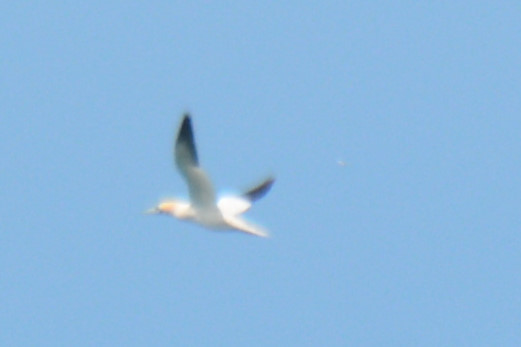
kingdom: Animalia
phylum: Chordata
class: Aves
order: Suliformes
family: Sulidae
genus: Morus
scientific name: Morus bassanus
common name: Northern gannet
